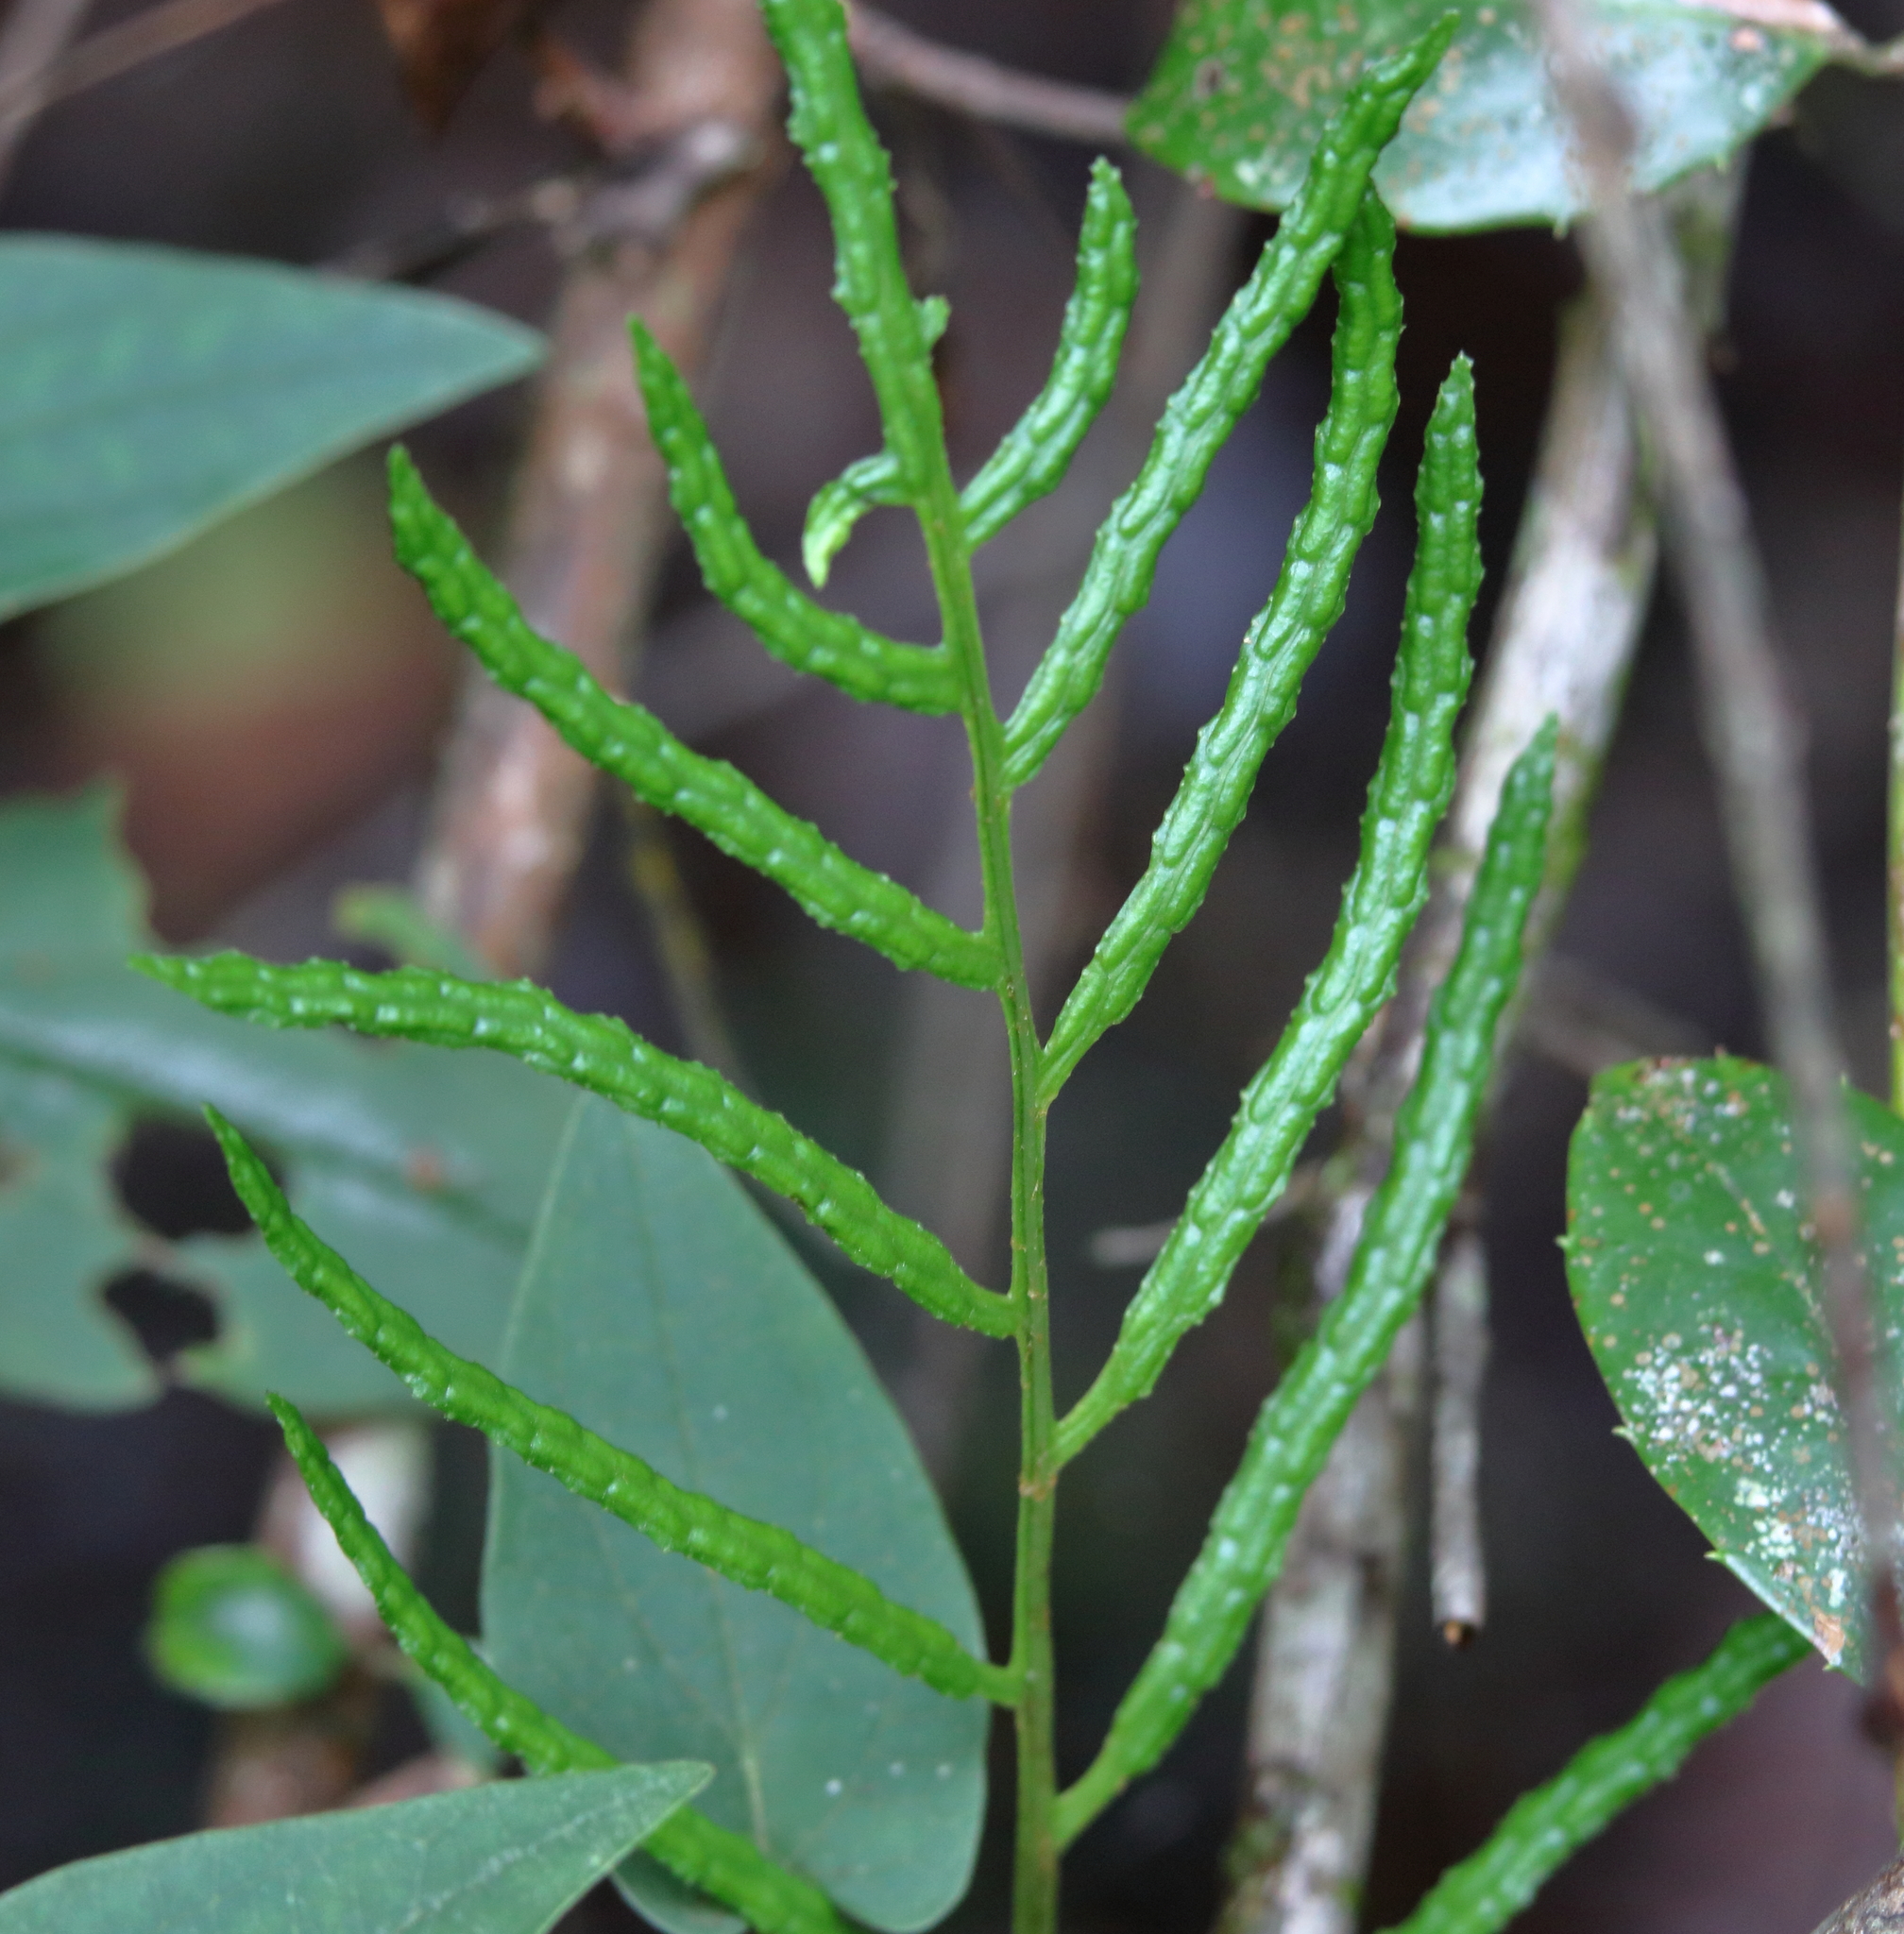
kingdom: Plantae
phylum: Tracheophyta
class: Polypodiopsida
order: Polypodiales
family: Blechnaceae
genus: Lorinseria
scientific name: Lorinseria areolata
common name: Dwarf chain fern
